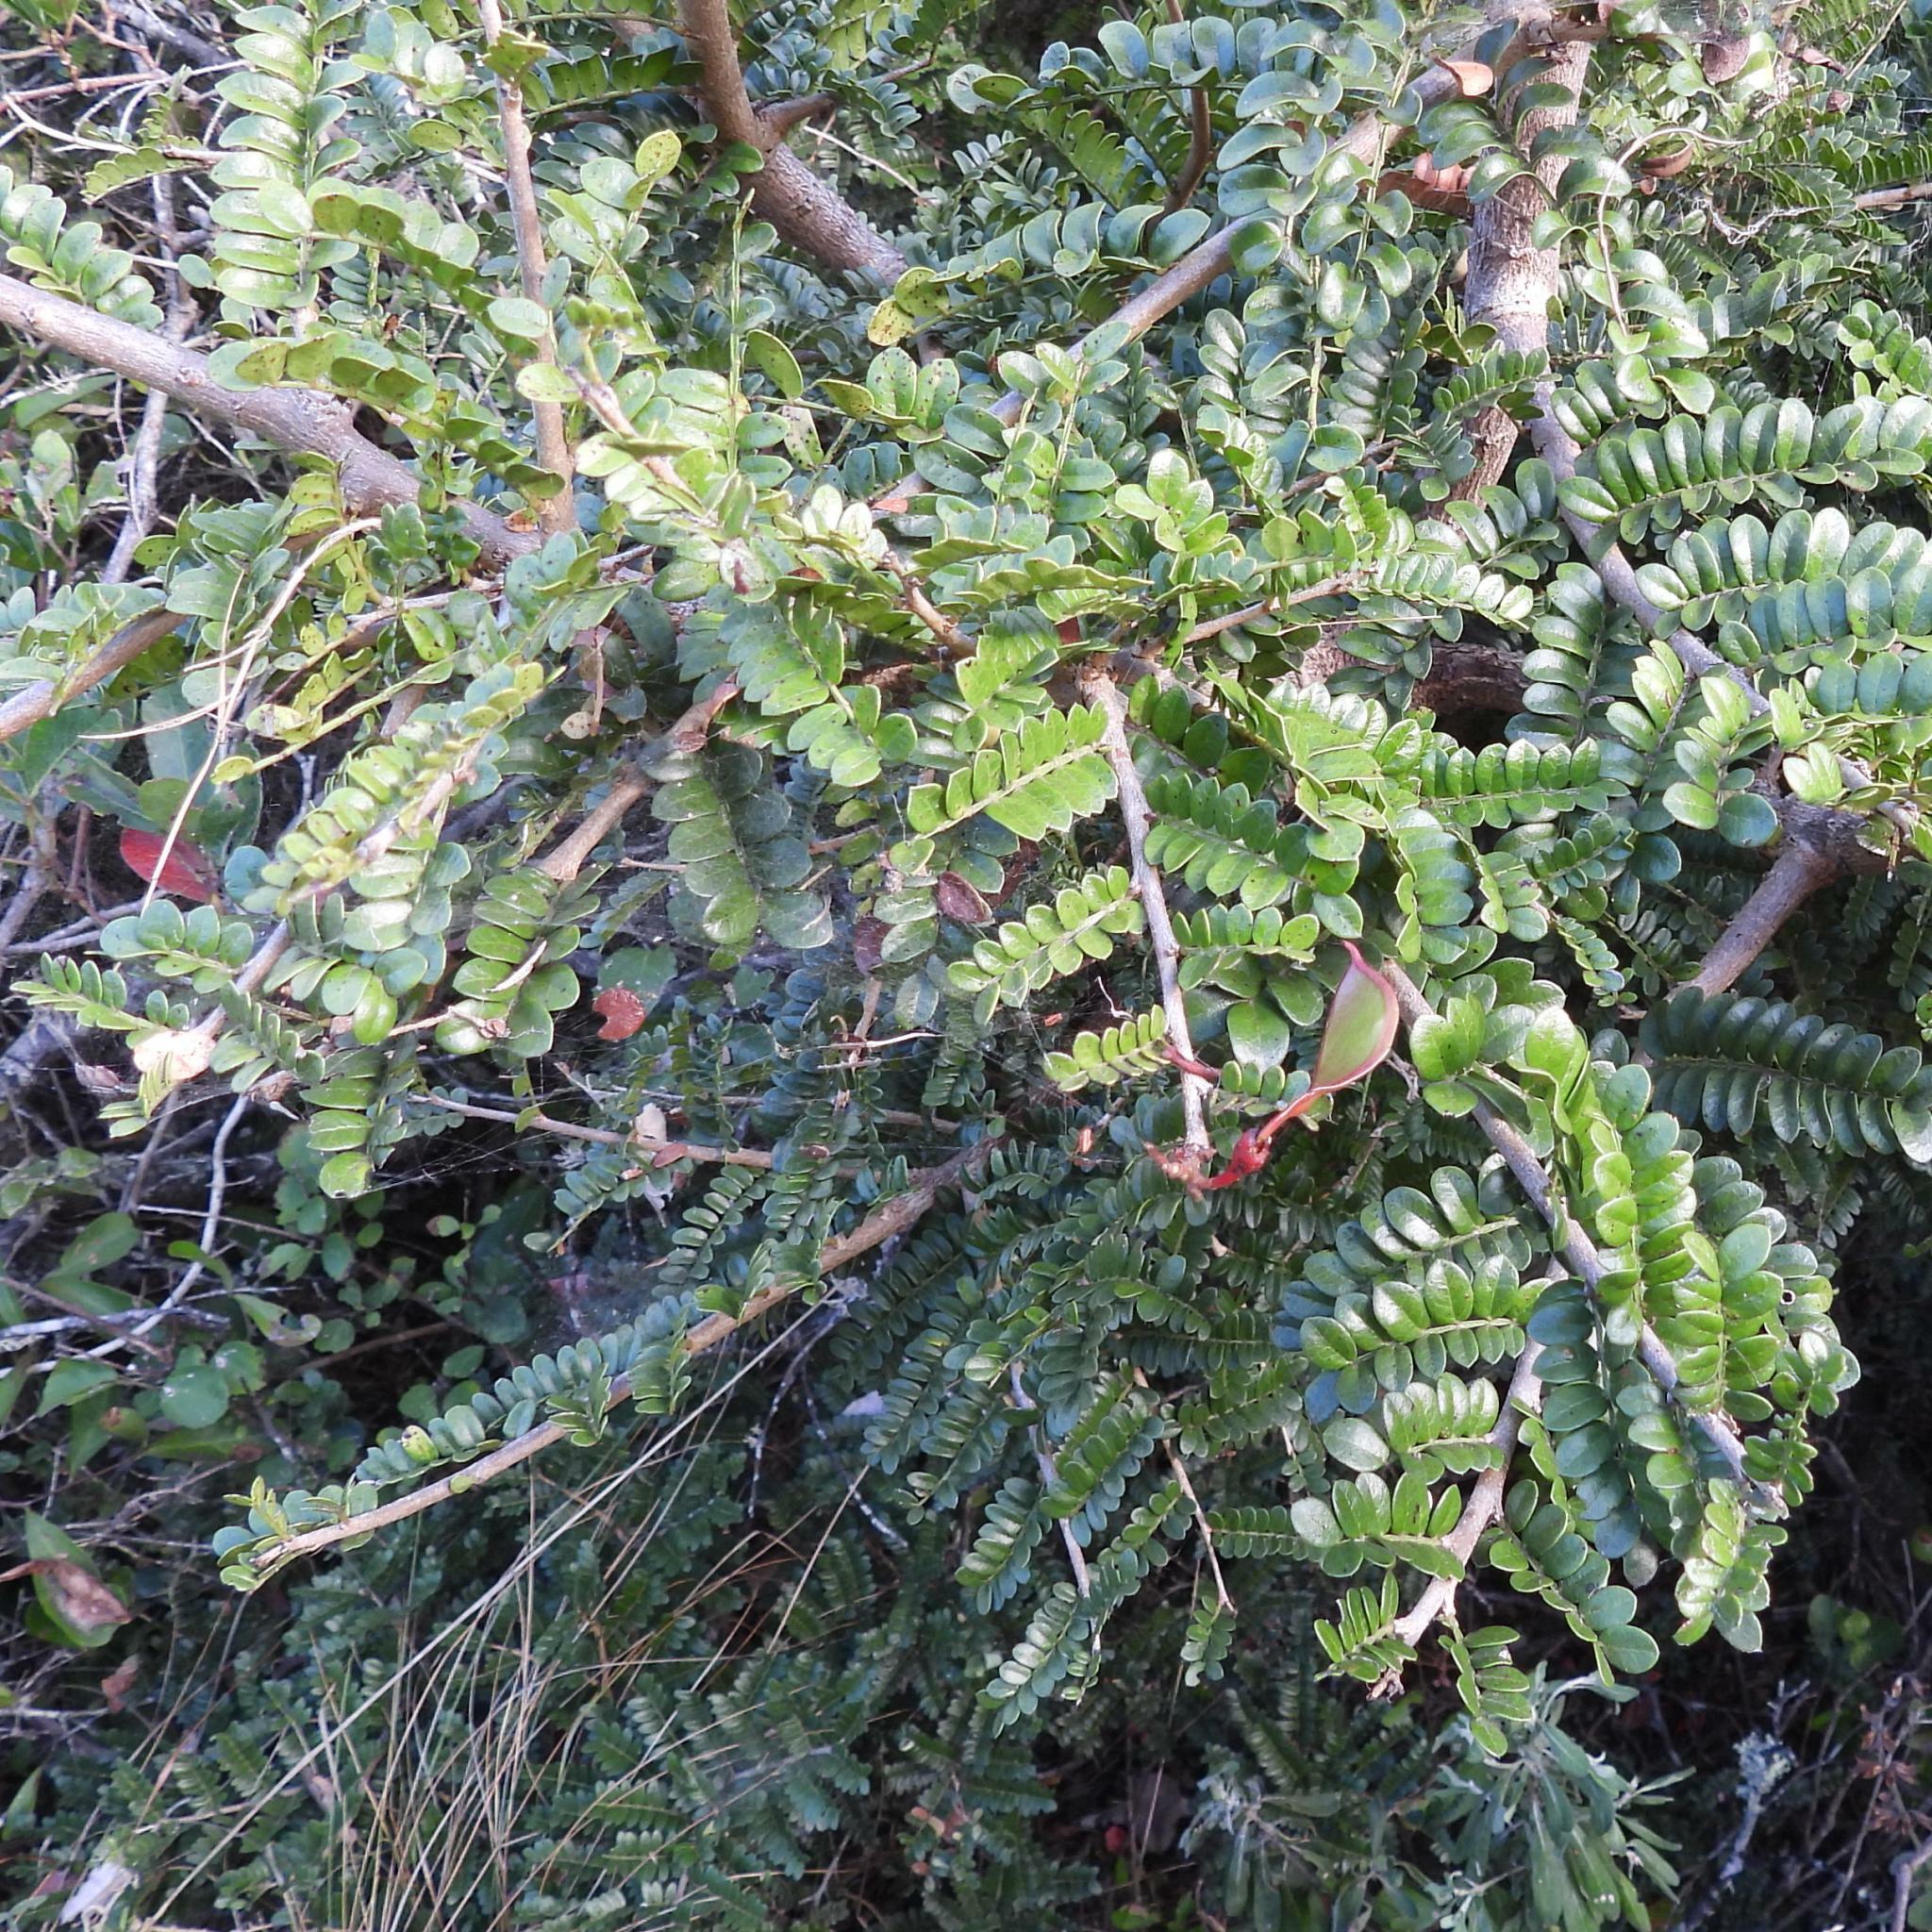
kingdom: Plantae
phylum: Tracheophyta
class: Magnoliopsida
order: Fabales
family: Fabaceae
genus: Schotia
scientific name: Schotia afra
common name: Hottentot's bean
